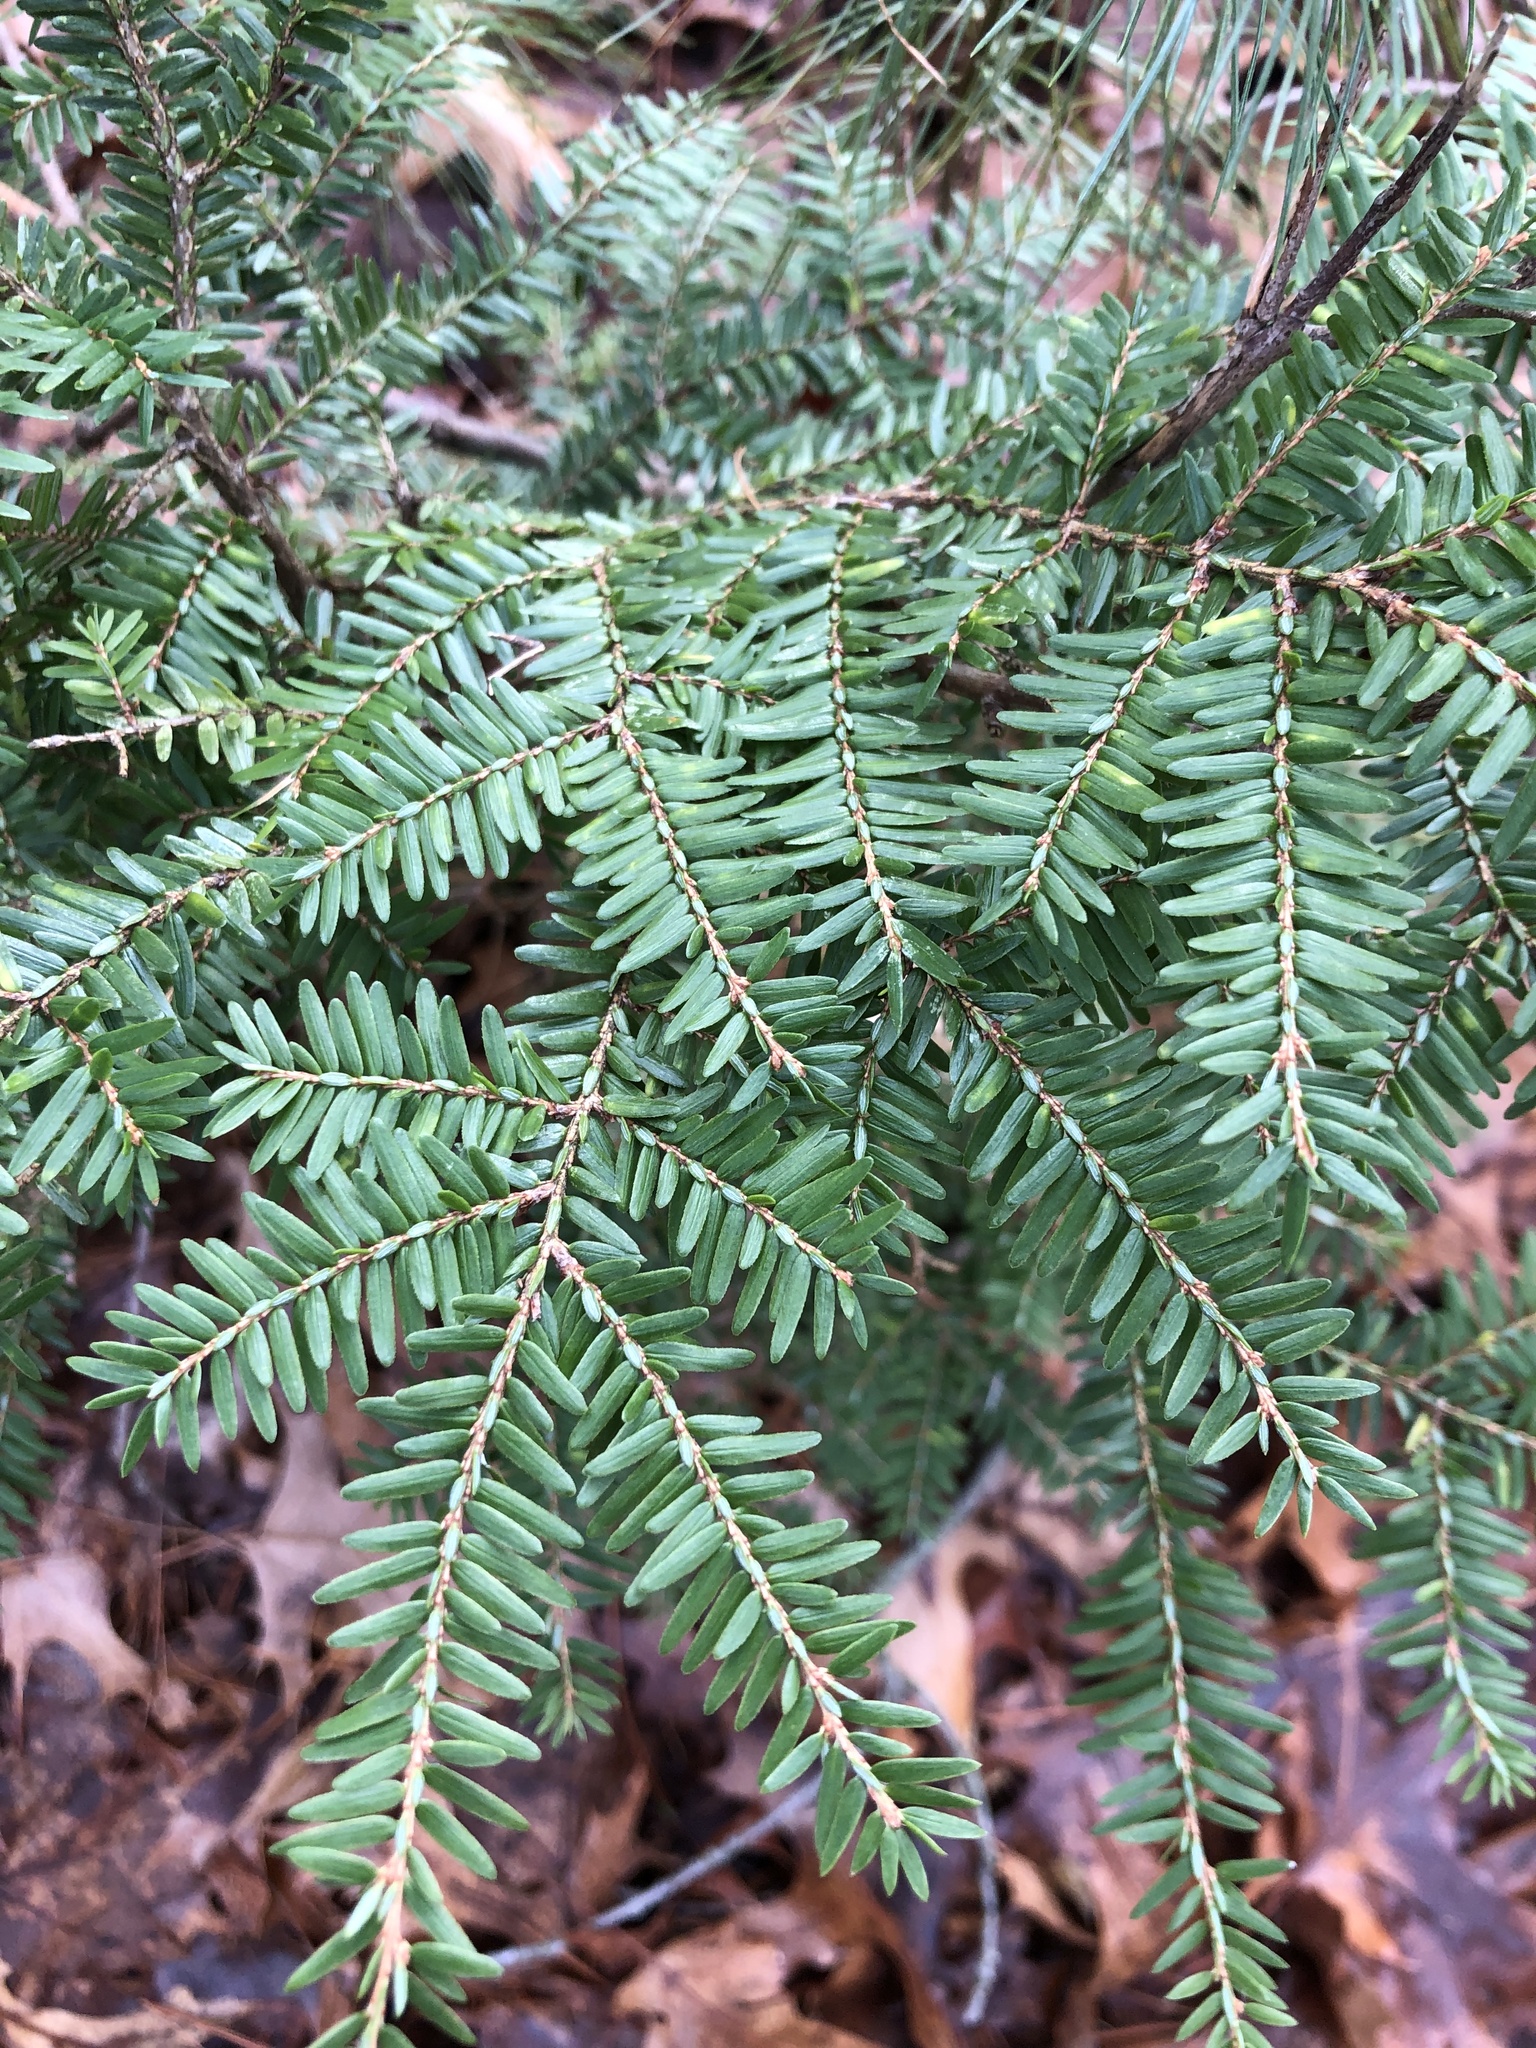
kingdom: Plantae
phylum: Tracheophyta
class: Pinopsida
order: Pinales
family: Pinaceae
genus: Tsuga
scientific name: Tsuga canadensis
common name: Eastern hemlock
